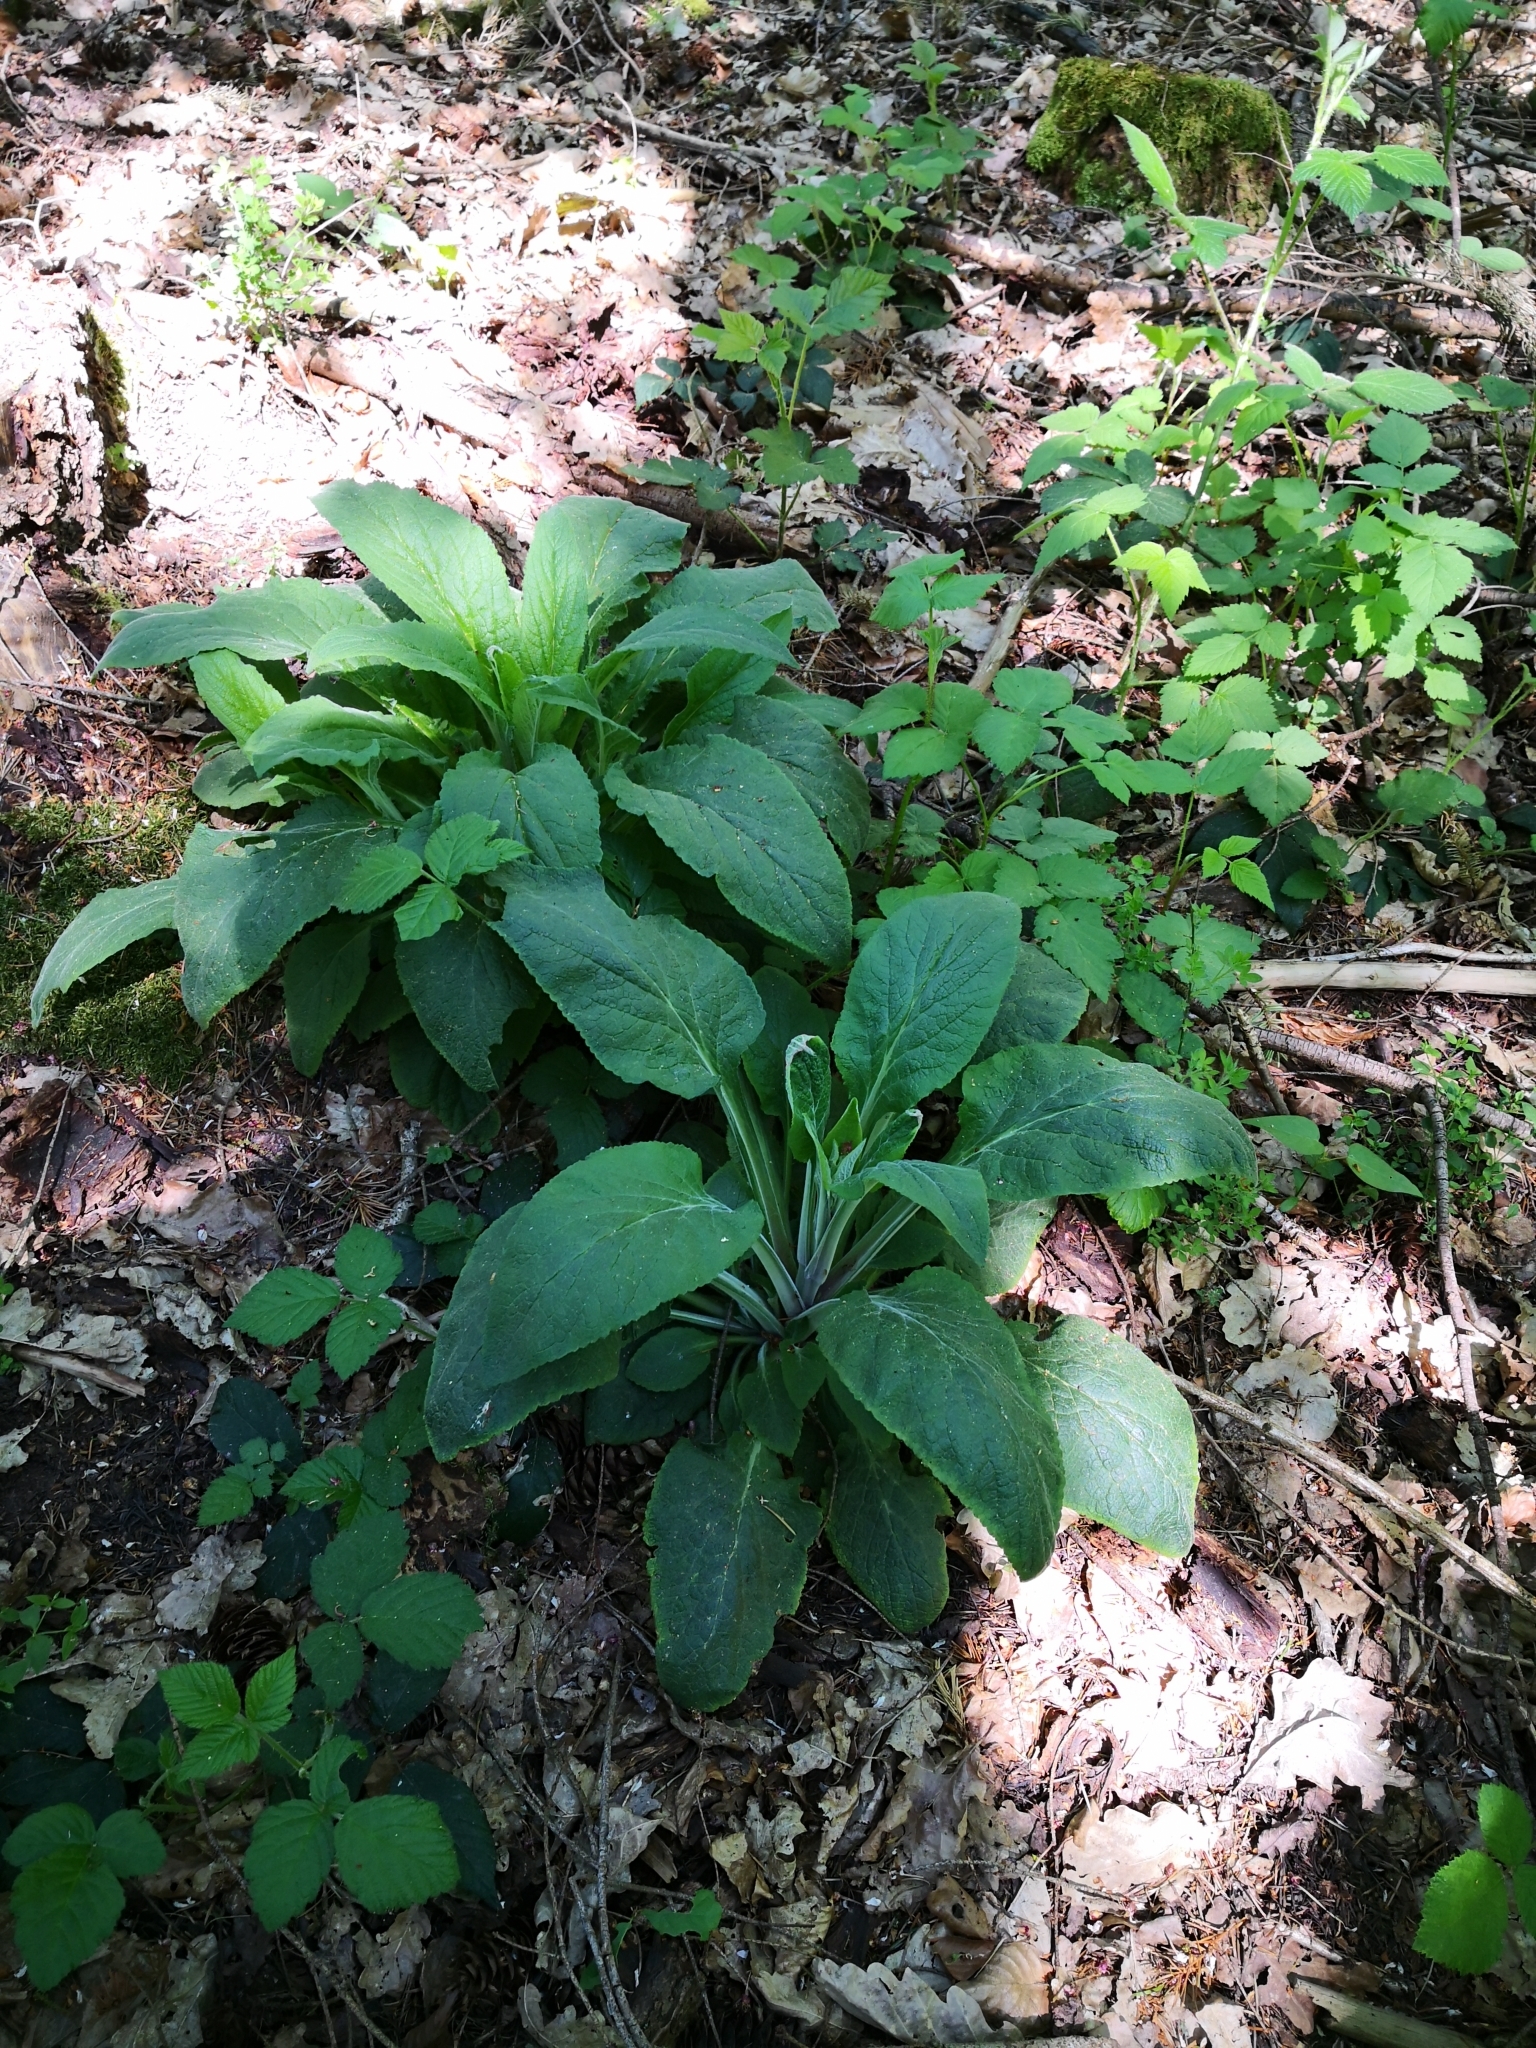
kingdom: Plantae
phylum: Tracheophyta
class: Magnoliopsida
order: Lamiales
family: Plantaginaceae
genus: Digitalis
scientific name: Digitalis purpurea
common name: Foxglove
